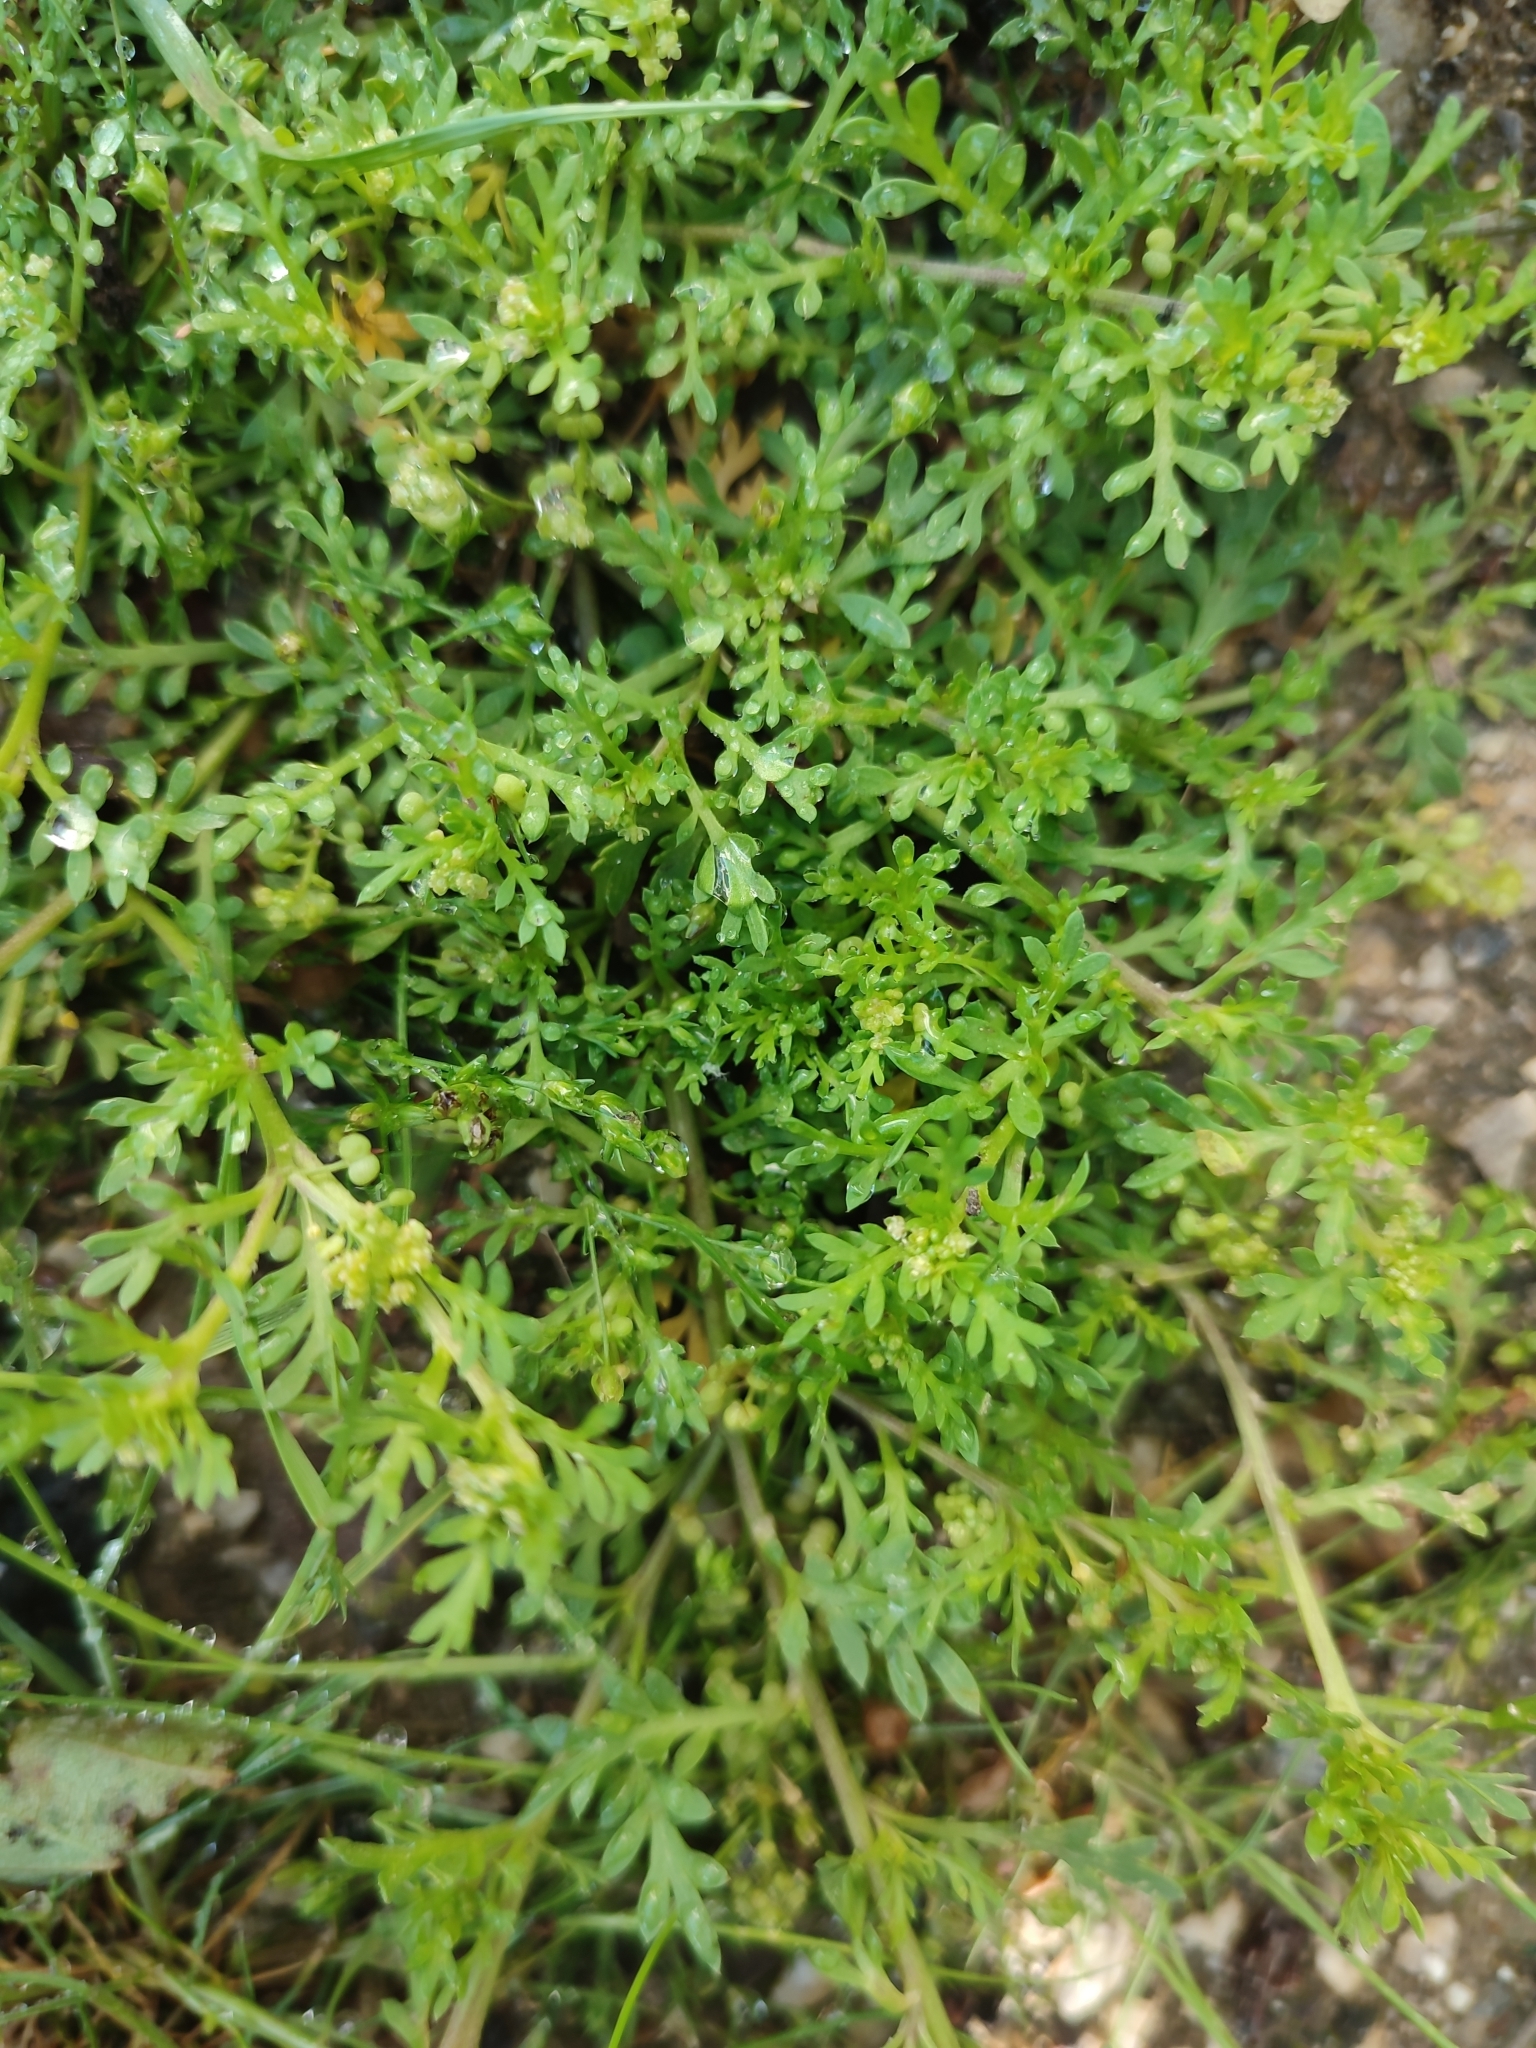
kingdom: Plantae
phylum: Tracheophyta
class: Magnoliopsida
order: Brassicales
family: Brassicaceae
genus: Lepidium
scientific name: Lepidium didymum
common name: Lesser swinecress
